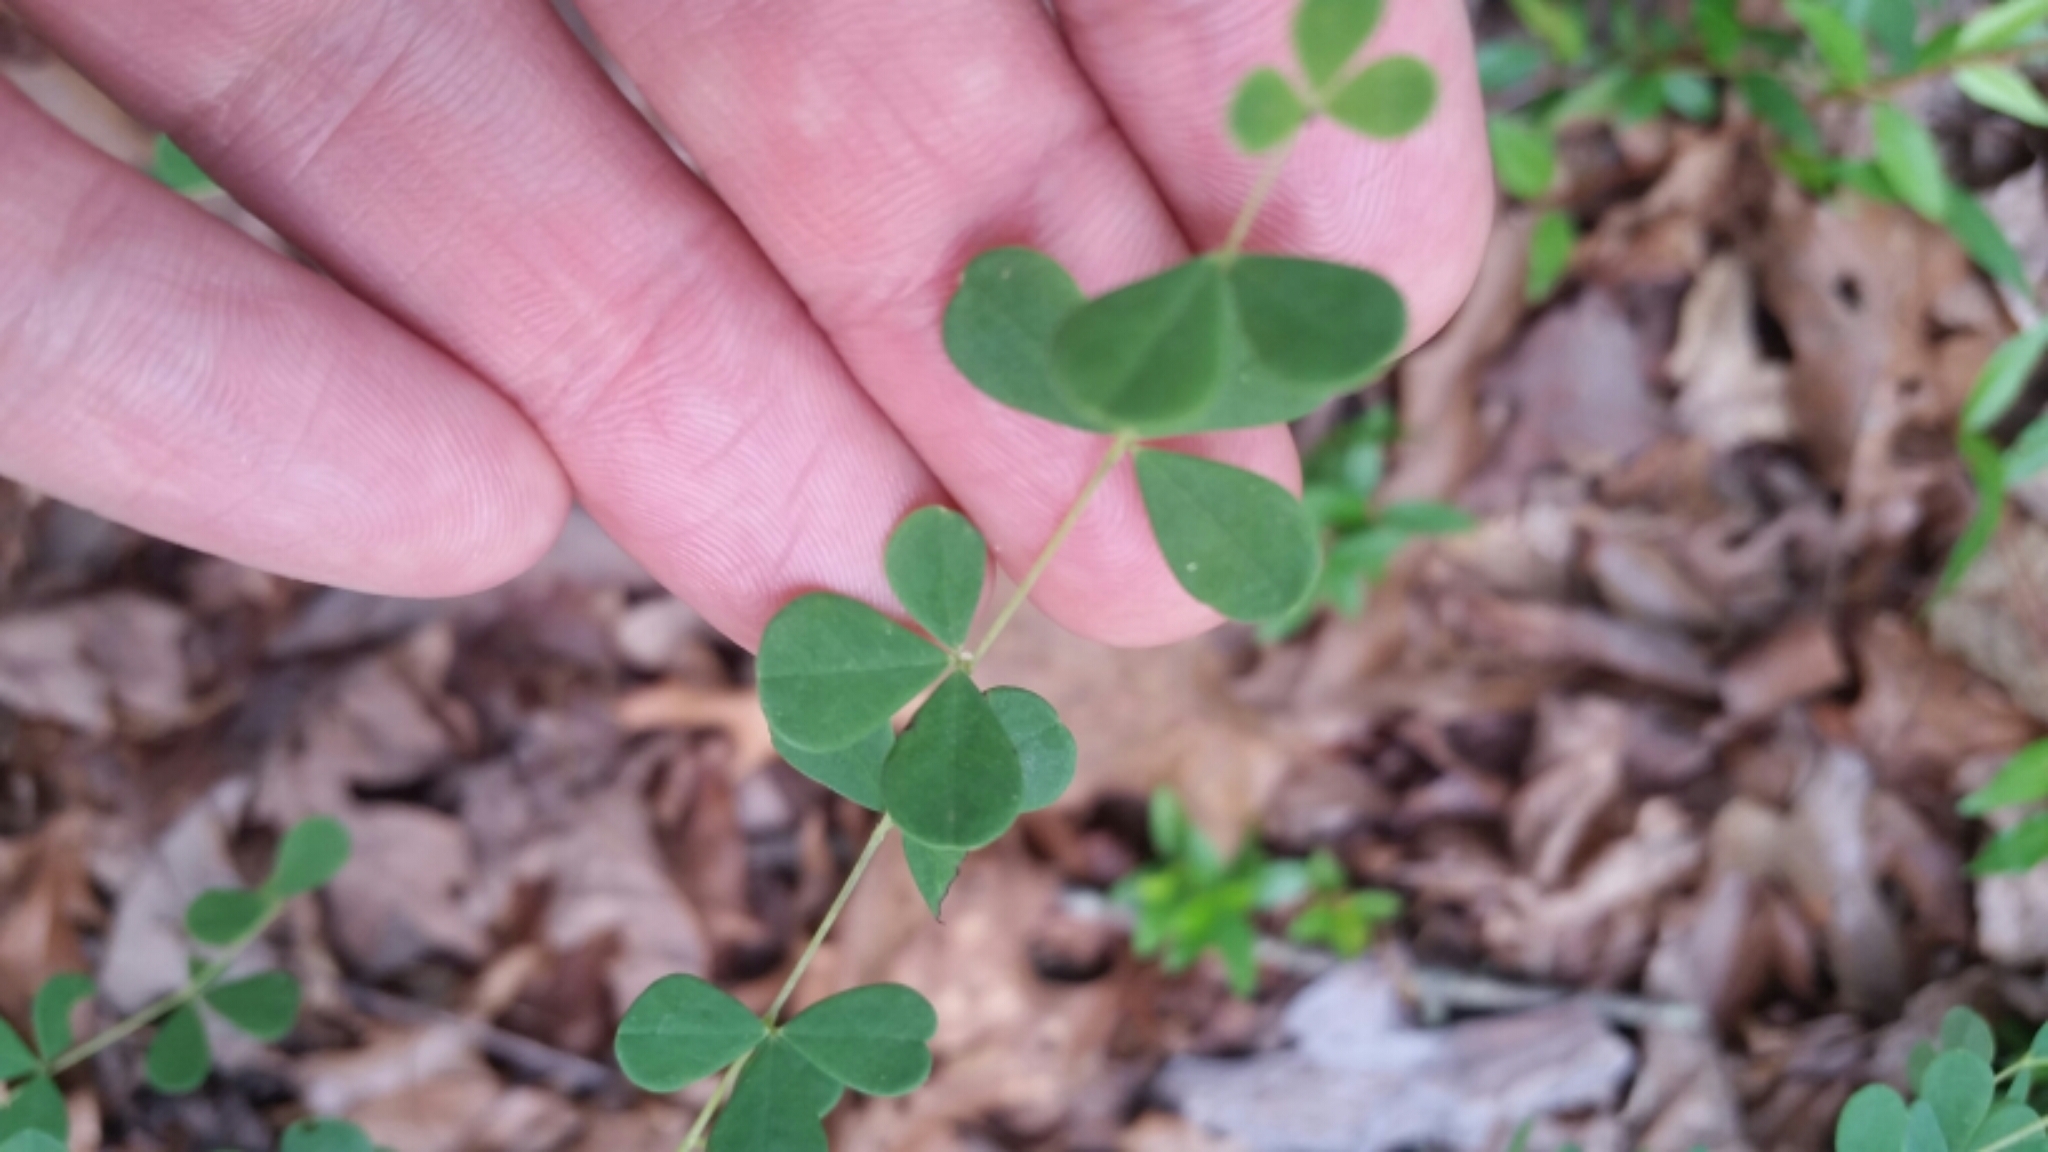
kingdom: Plantae
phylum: Tracheophyta
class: Magnoliopsida
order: Fabales
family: Fabaceae
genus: Baptisia
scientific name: Baptisia tinctoria
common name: Wild indigo
